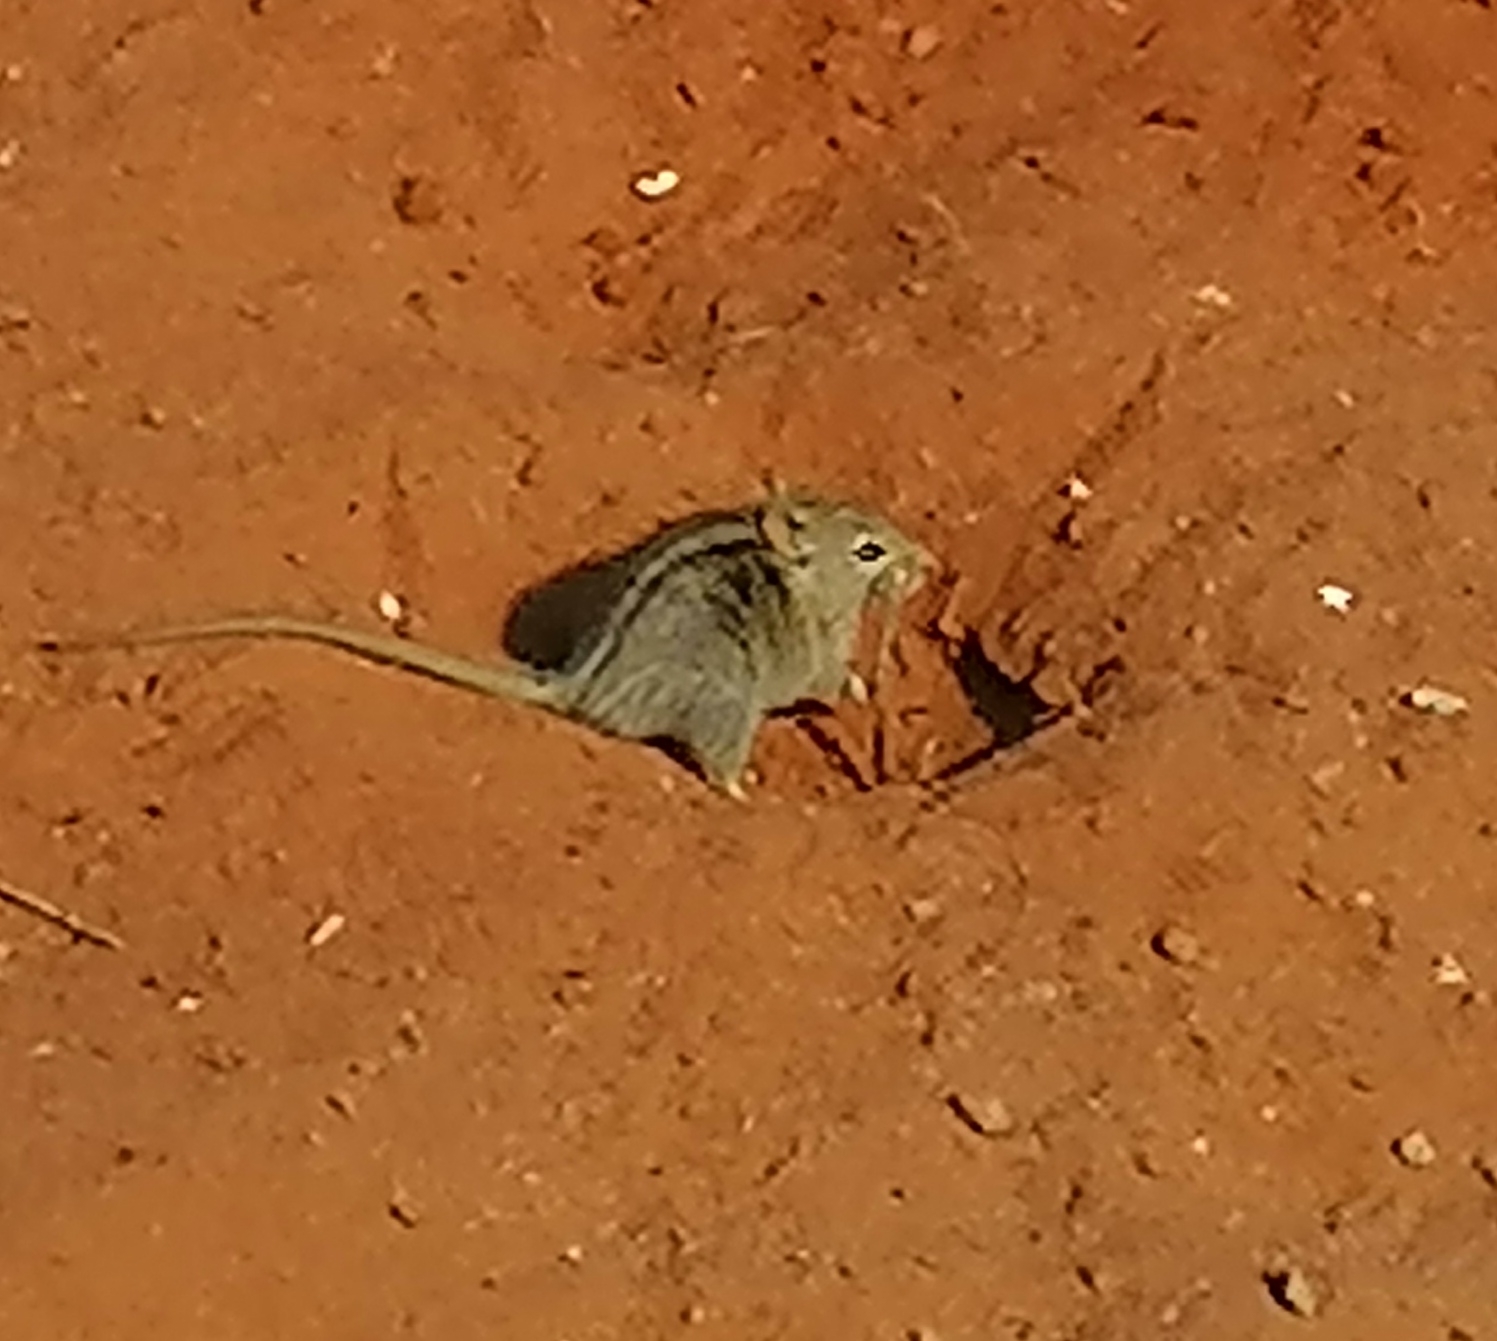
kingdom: Animalia
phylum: Chordata
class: Mammalia
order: Rodentia
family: Muridae
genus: Rhabdomys
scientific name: Rhabdomys pumilio
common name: Xeric four-striped grass rat
